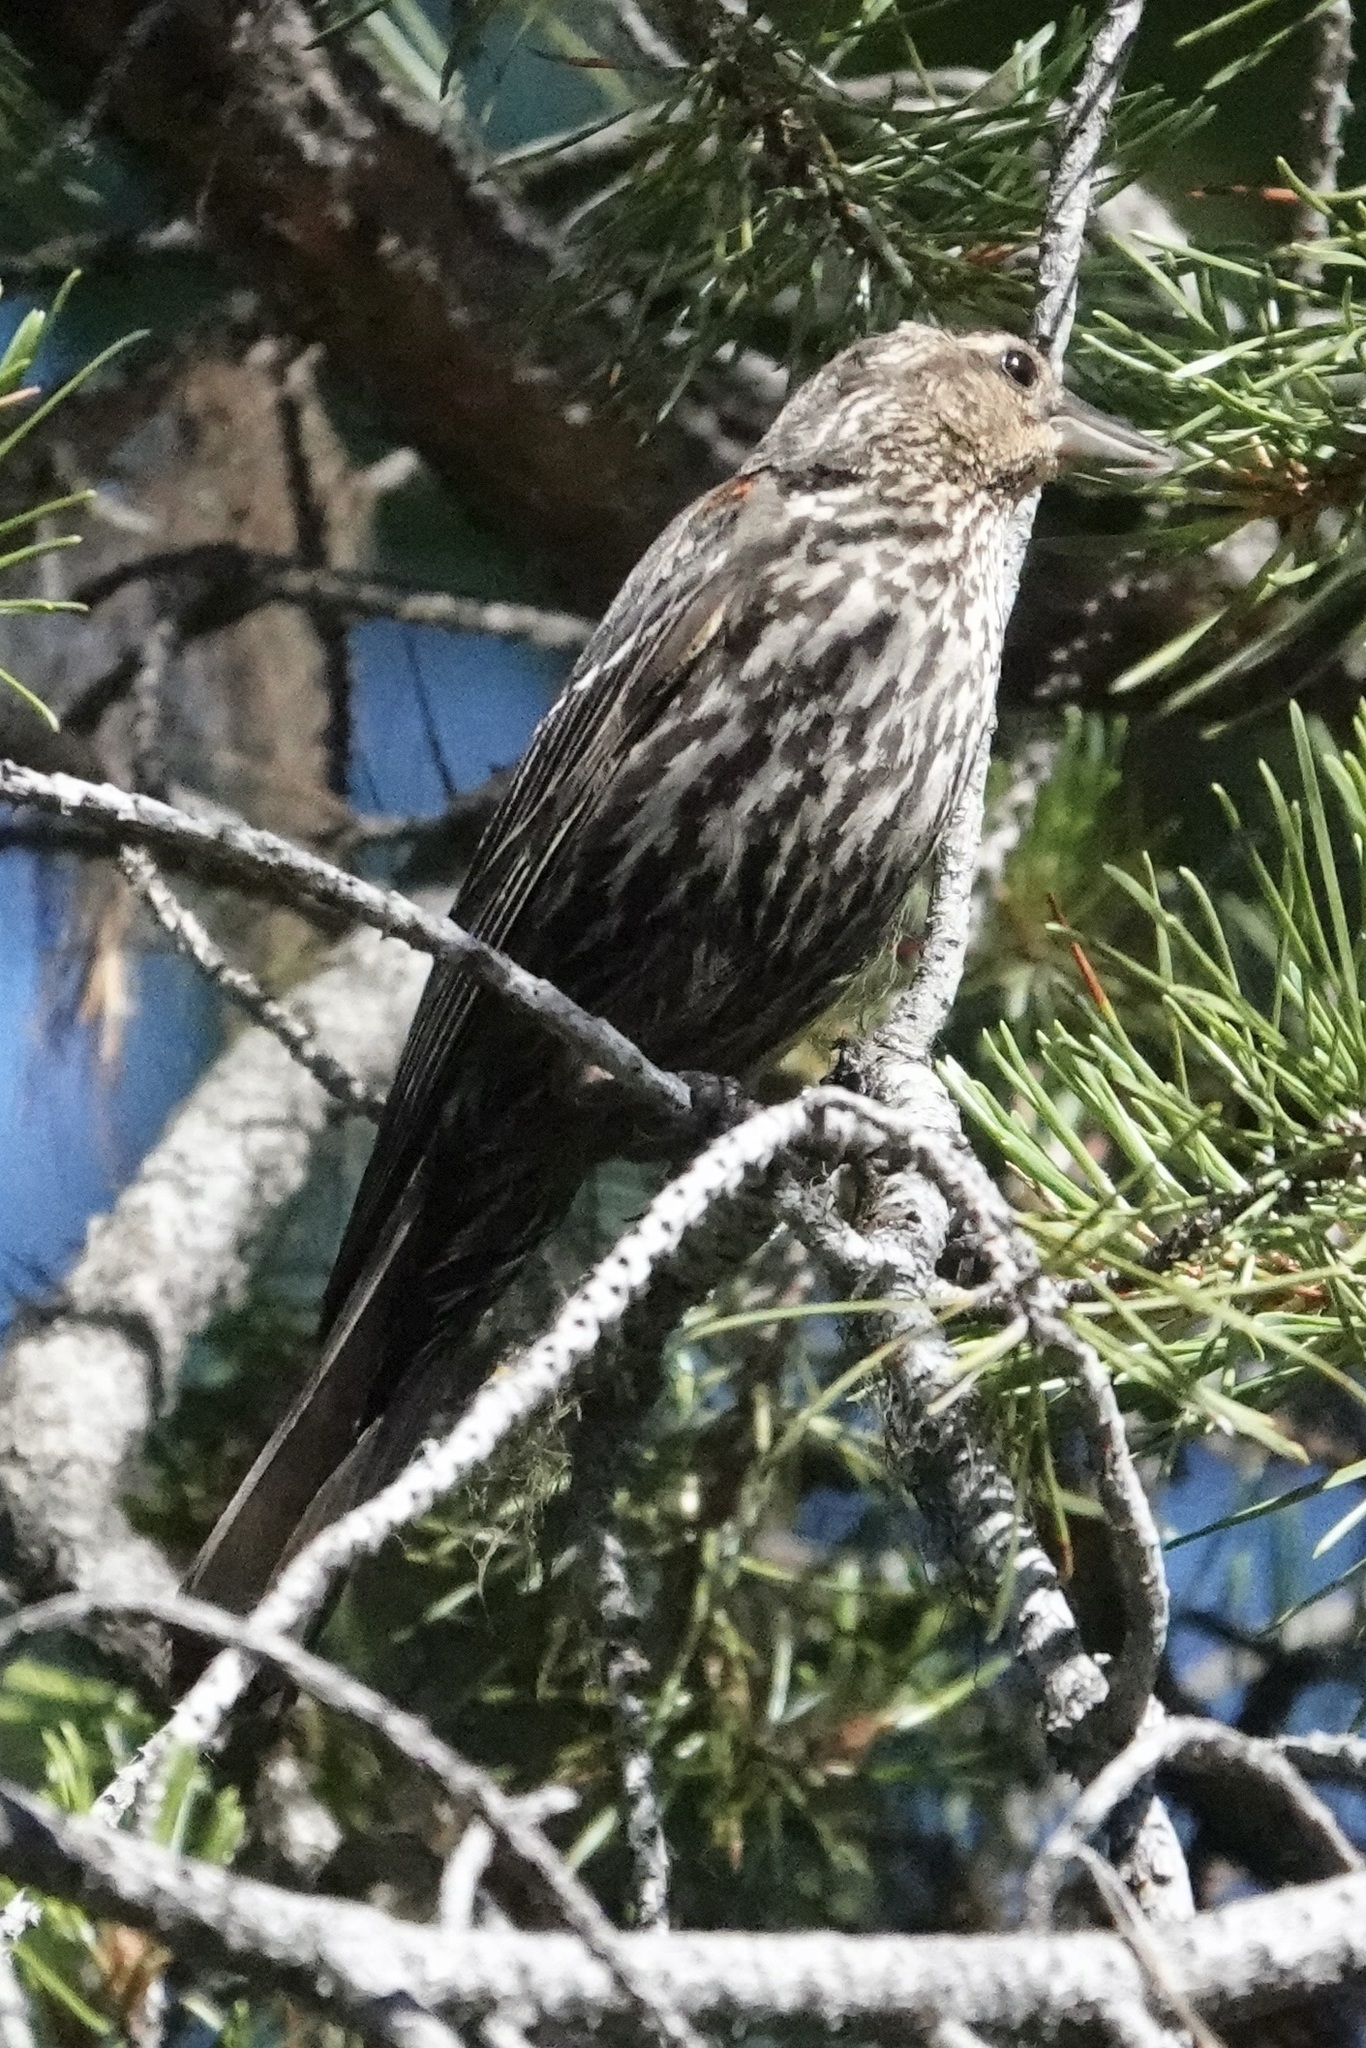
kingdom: Animalia
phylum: Chordata
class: Aves
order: Passeriformes
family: Icteridae
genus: Agelaius
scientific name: Agelaius phoeniceus
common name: Red-winged blackbird
